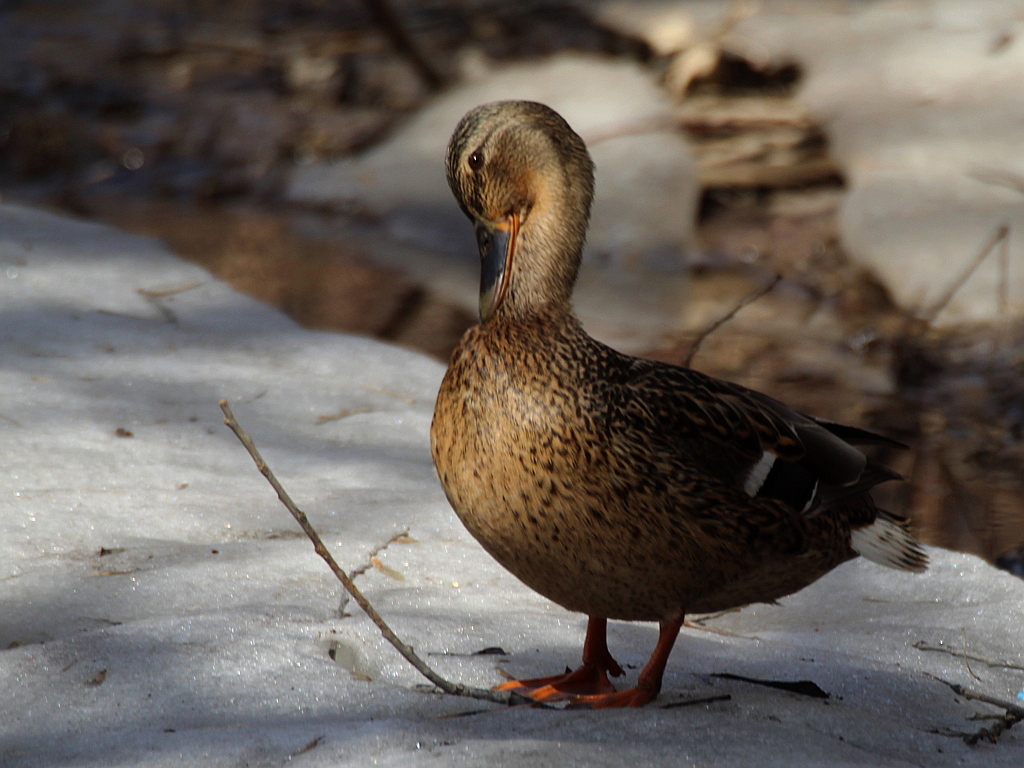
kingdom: Animalia
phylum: Chordata
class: Aves
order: Anseriformes
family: Anatidae
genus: Anas
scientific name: Anas platyrhynchos
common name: Mallard
